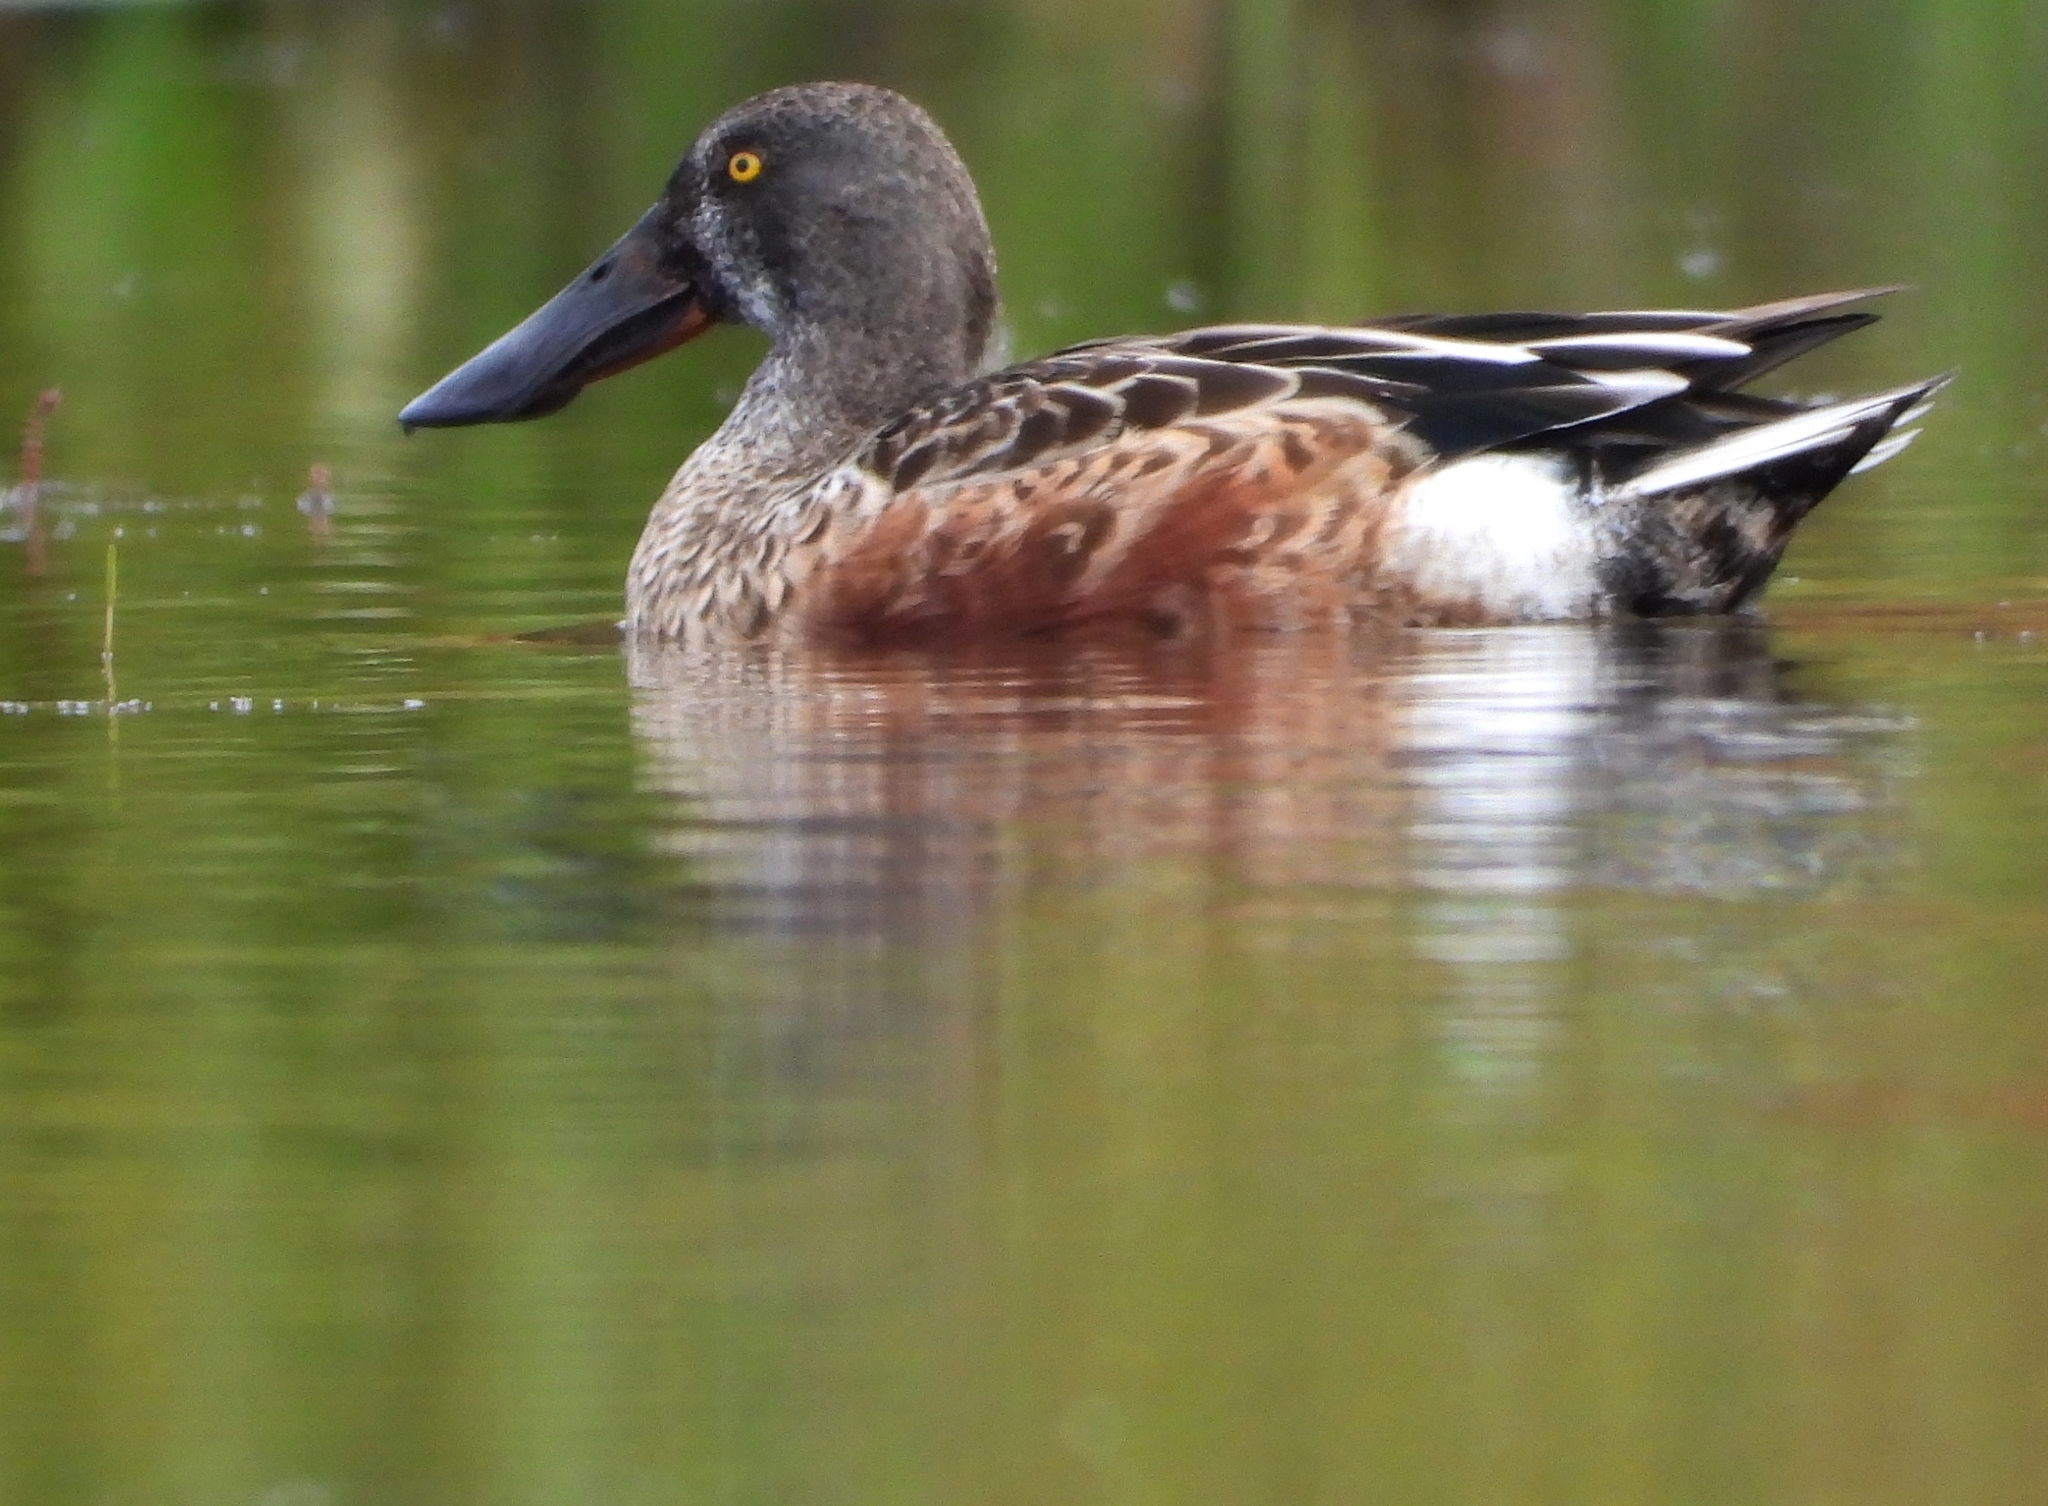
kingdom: Animalia
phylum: Chordata
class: Aves
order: Anseriformes
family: Anatidae
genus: Spatula
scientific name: Spatula clypeata
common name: Northern shoveler
